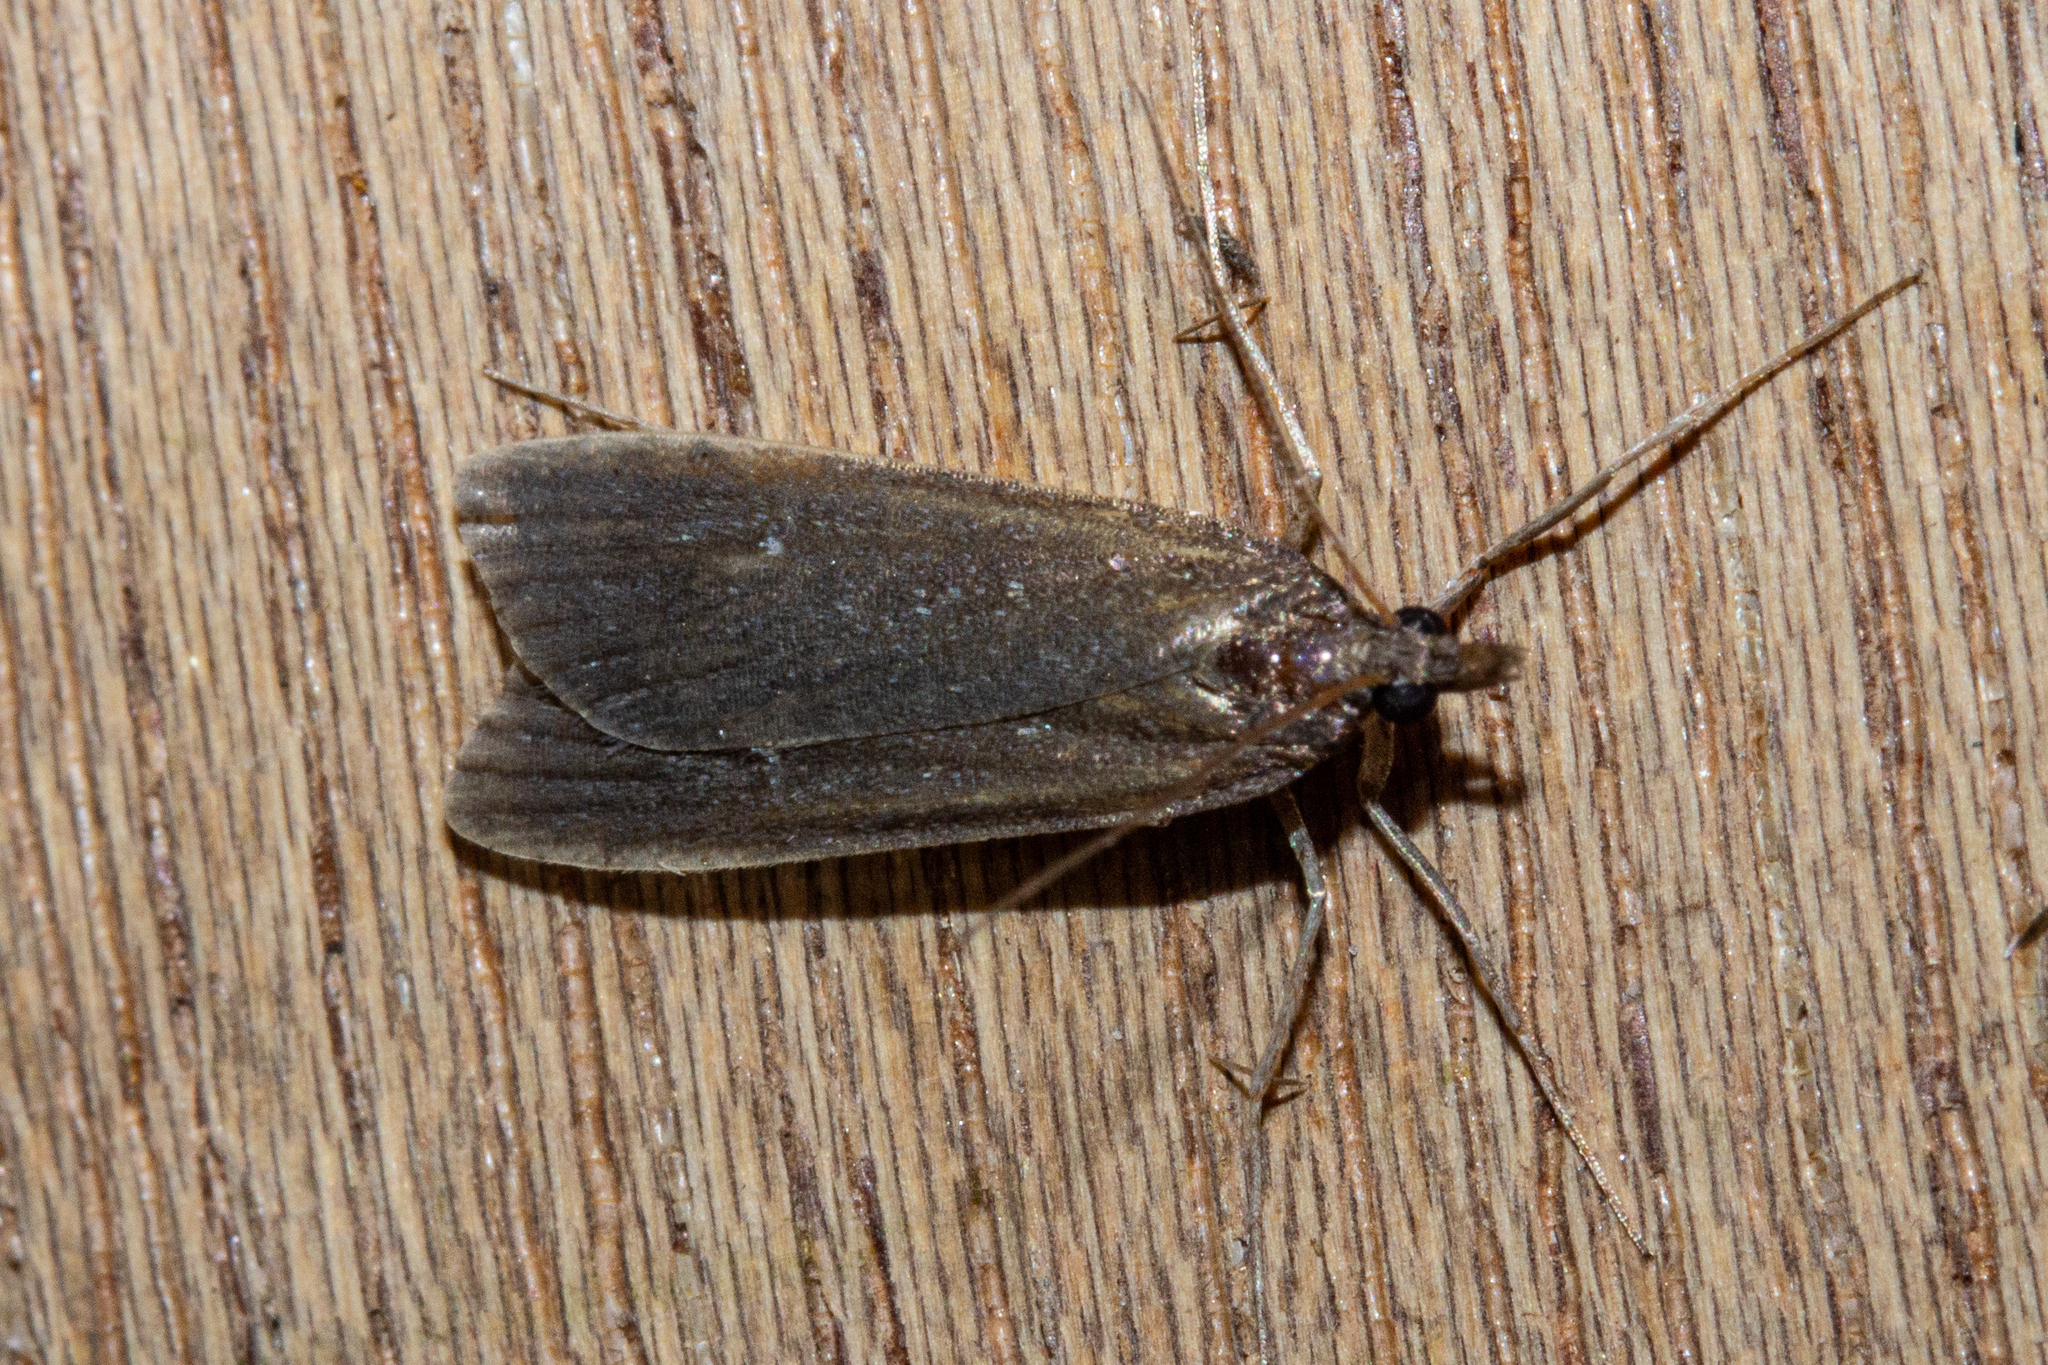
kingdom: Animalia
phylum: Arthropoda
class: Insecta
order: Lepidoptera
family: Crambidae
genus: Eudonia
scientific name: Eudonia oculata
